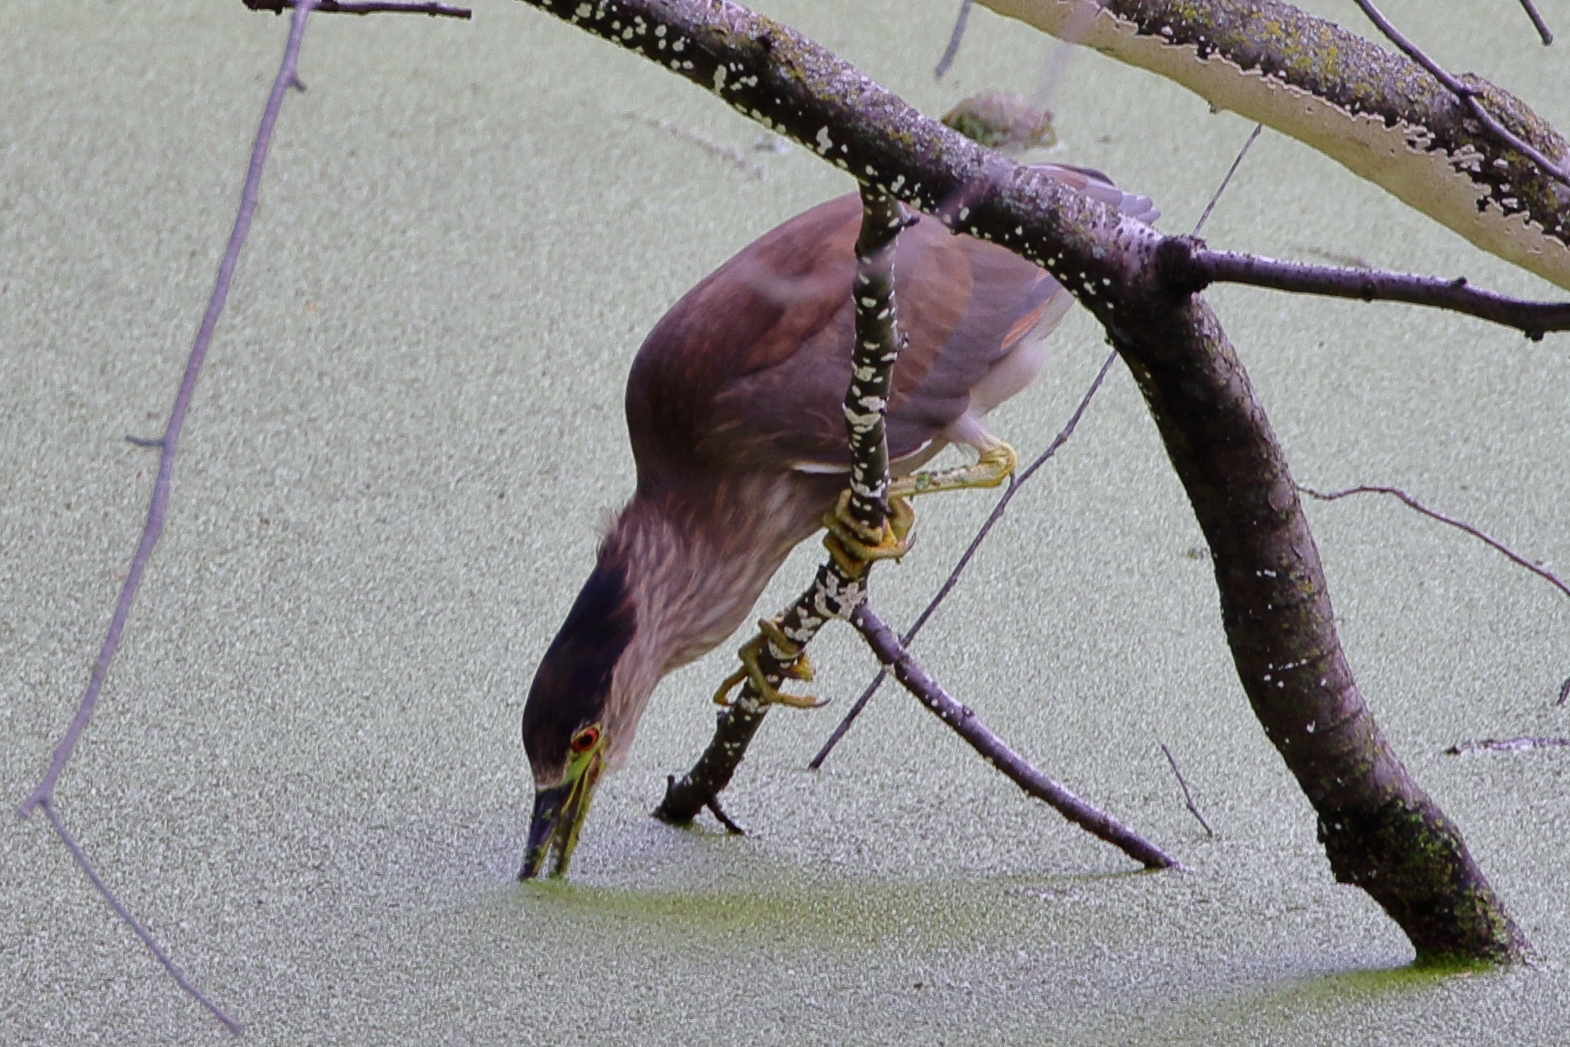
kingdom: Animalia
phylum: Chordata
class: Aves
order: Pelecaniformes
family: Ardeidae
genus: Nycticorax
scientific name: Nycticorax nycticorax
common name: Black-crowned night heron
